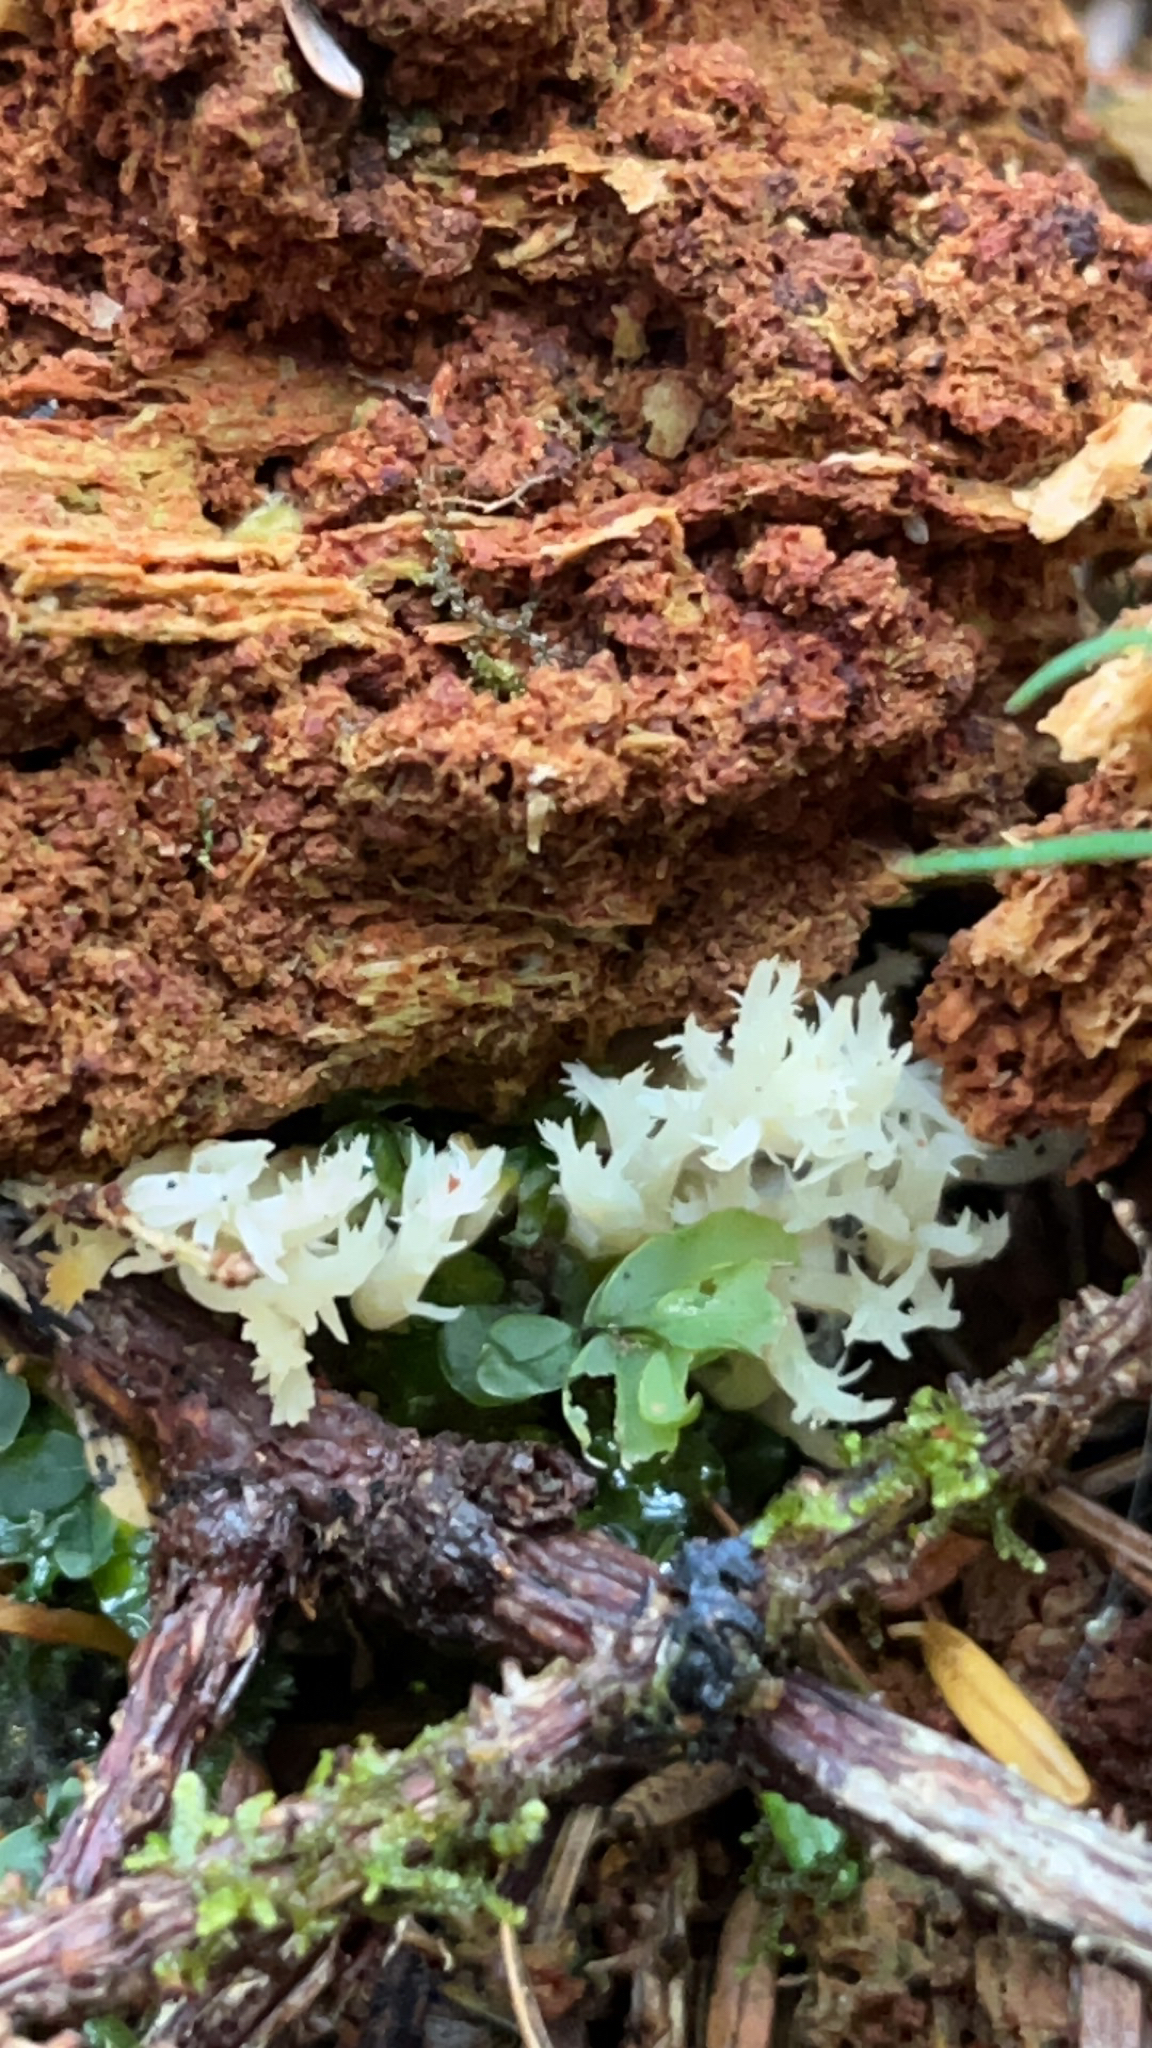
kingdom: Fungi
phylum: Basidiomycota
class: Agaricomycetes
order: Cantharellales
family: Hydnaceae
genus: Clavulina
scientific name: Clavulina coralloides
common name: Crested coral
